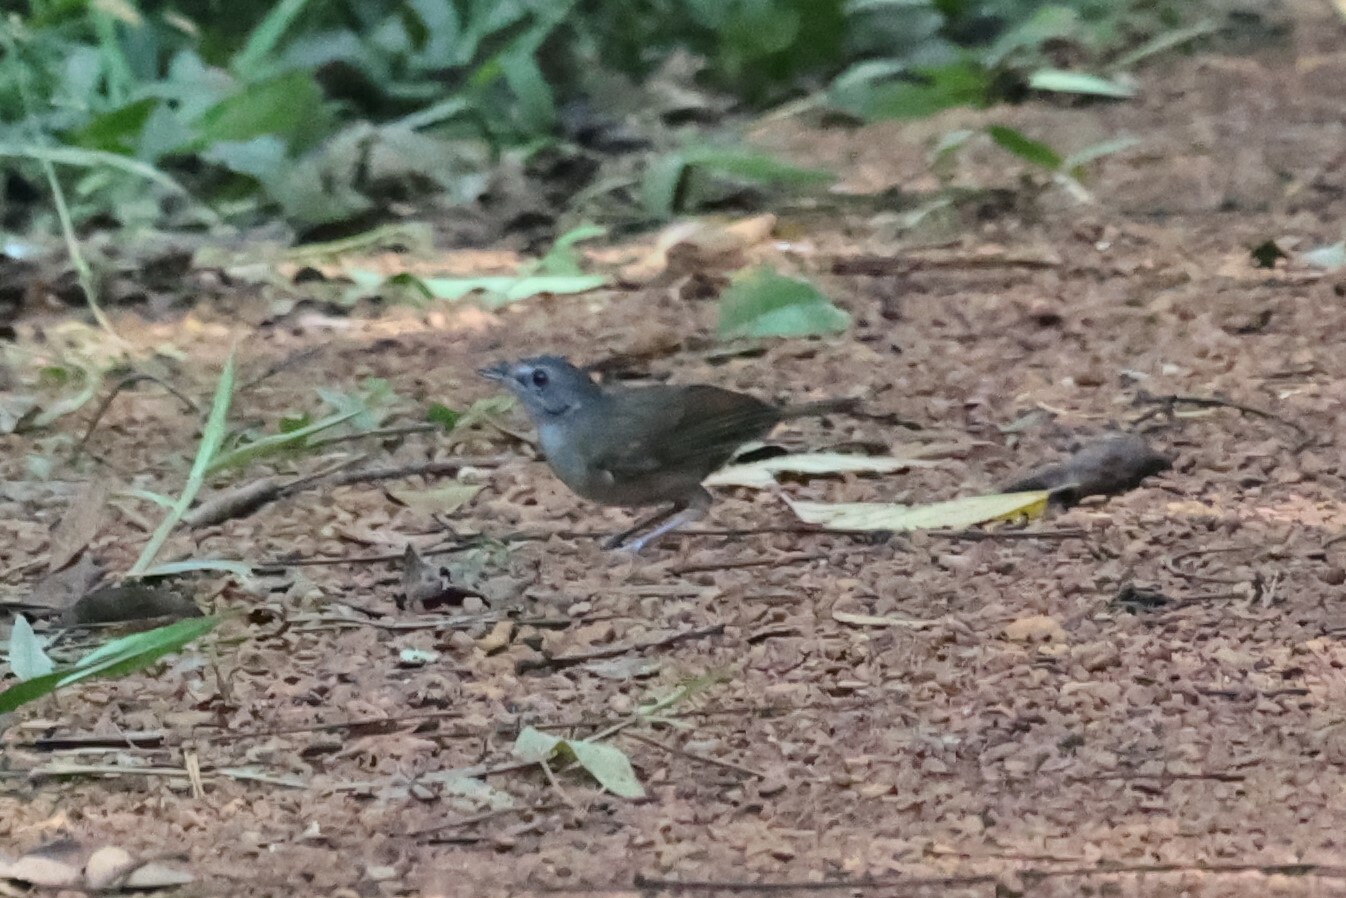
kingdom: Animalia
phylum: Chordata
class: Aves
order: Passeriformes
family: Pellorneidae
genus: Illadopsis
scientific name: Illadopsis
